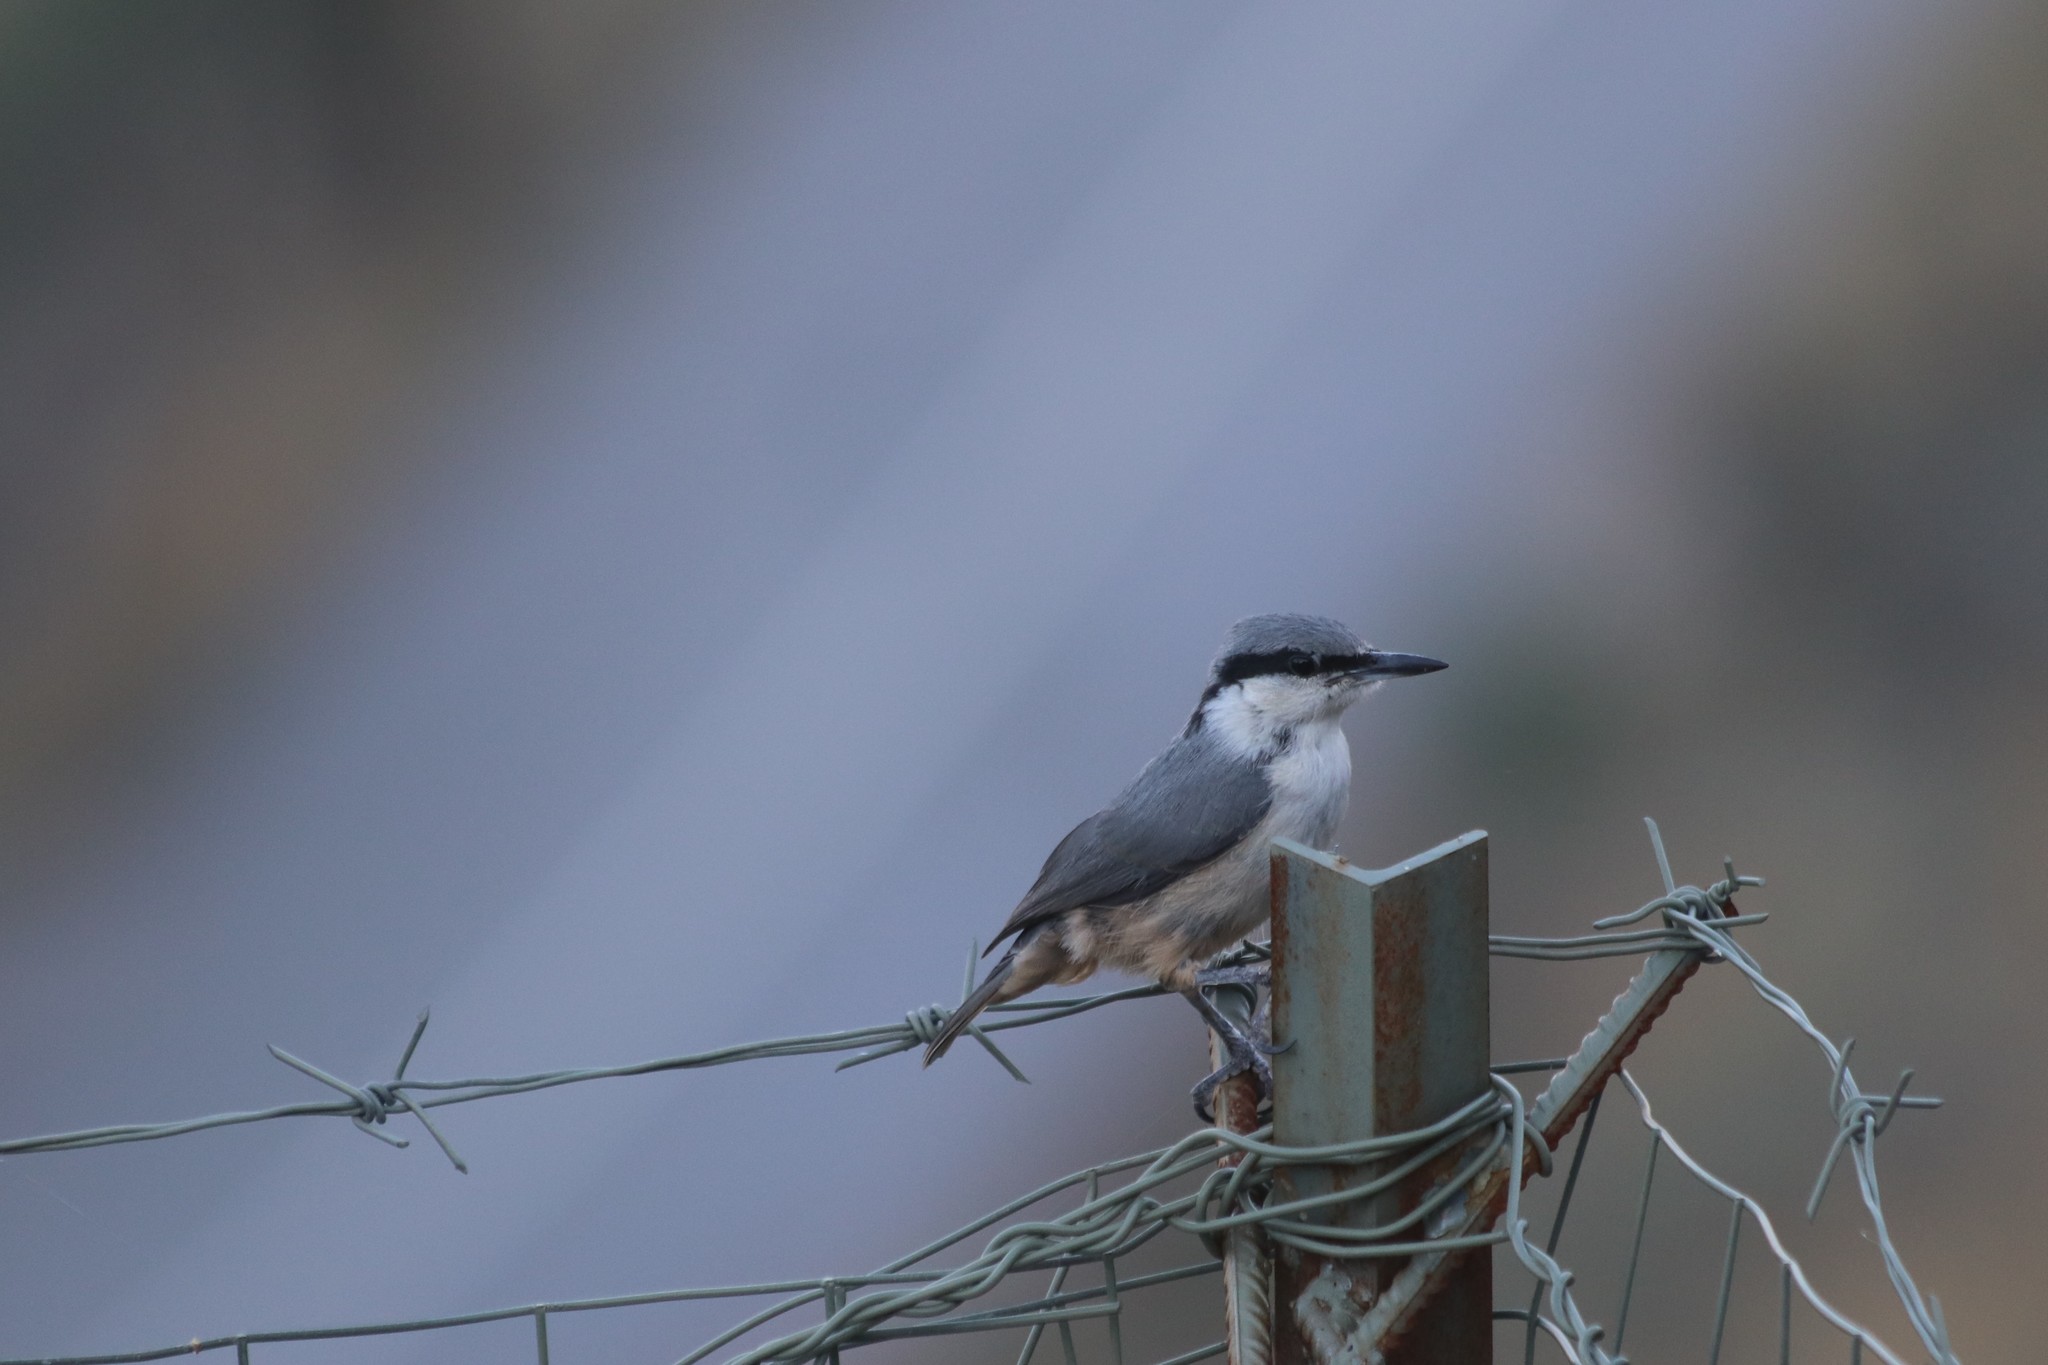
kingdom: Animalia
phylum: Chordata
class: Aves
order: Passeriformes
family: Sittidae
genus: Sitta
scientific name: Sitta neumayer
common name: Western rock nuthatch
